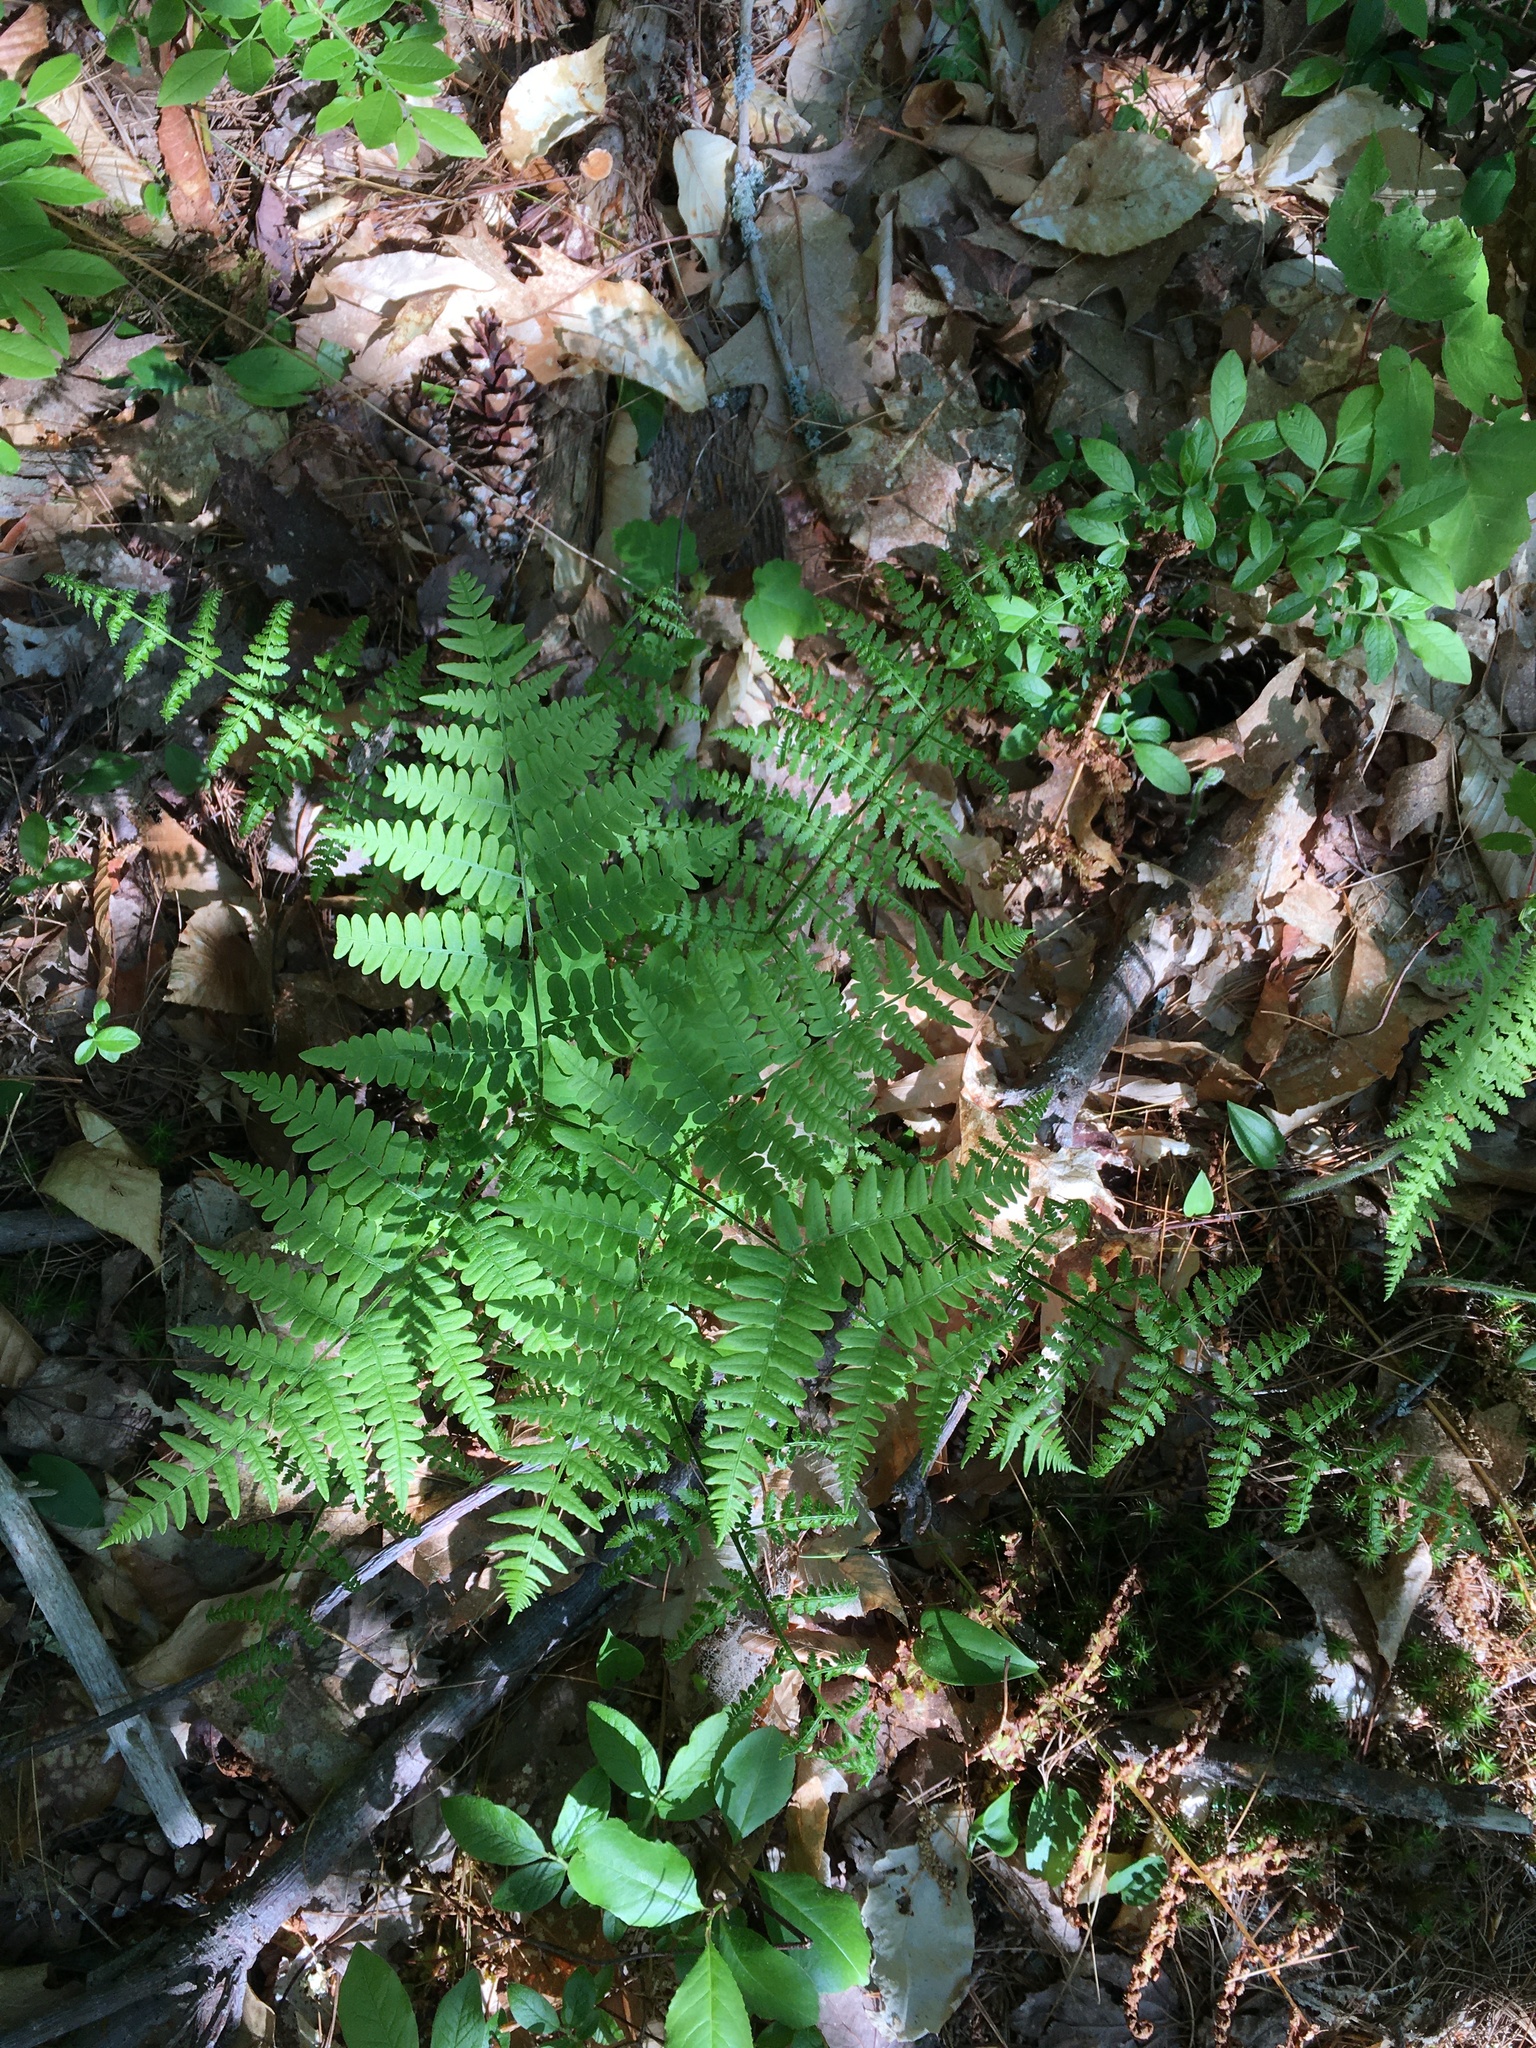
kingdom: Plantae
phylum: Tracheophyta
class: Polypodiopsida
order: Polypodiales
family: Dennstaedtiaceae
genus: Pteridium
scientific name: Pteridium aquilinum
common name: Bracken
